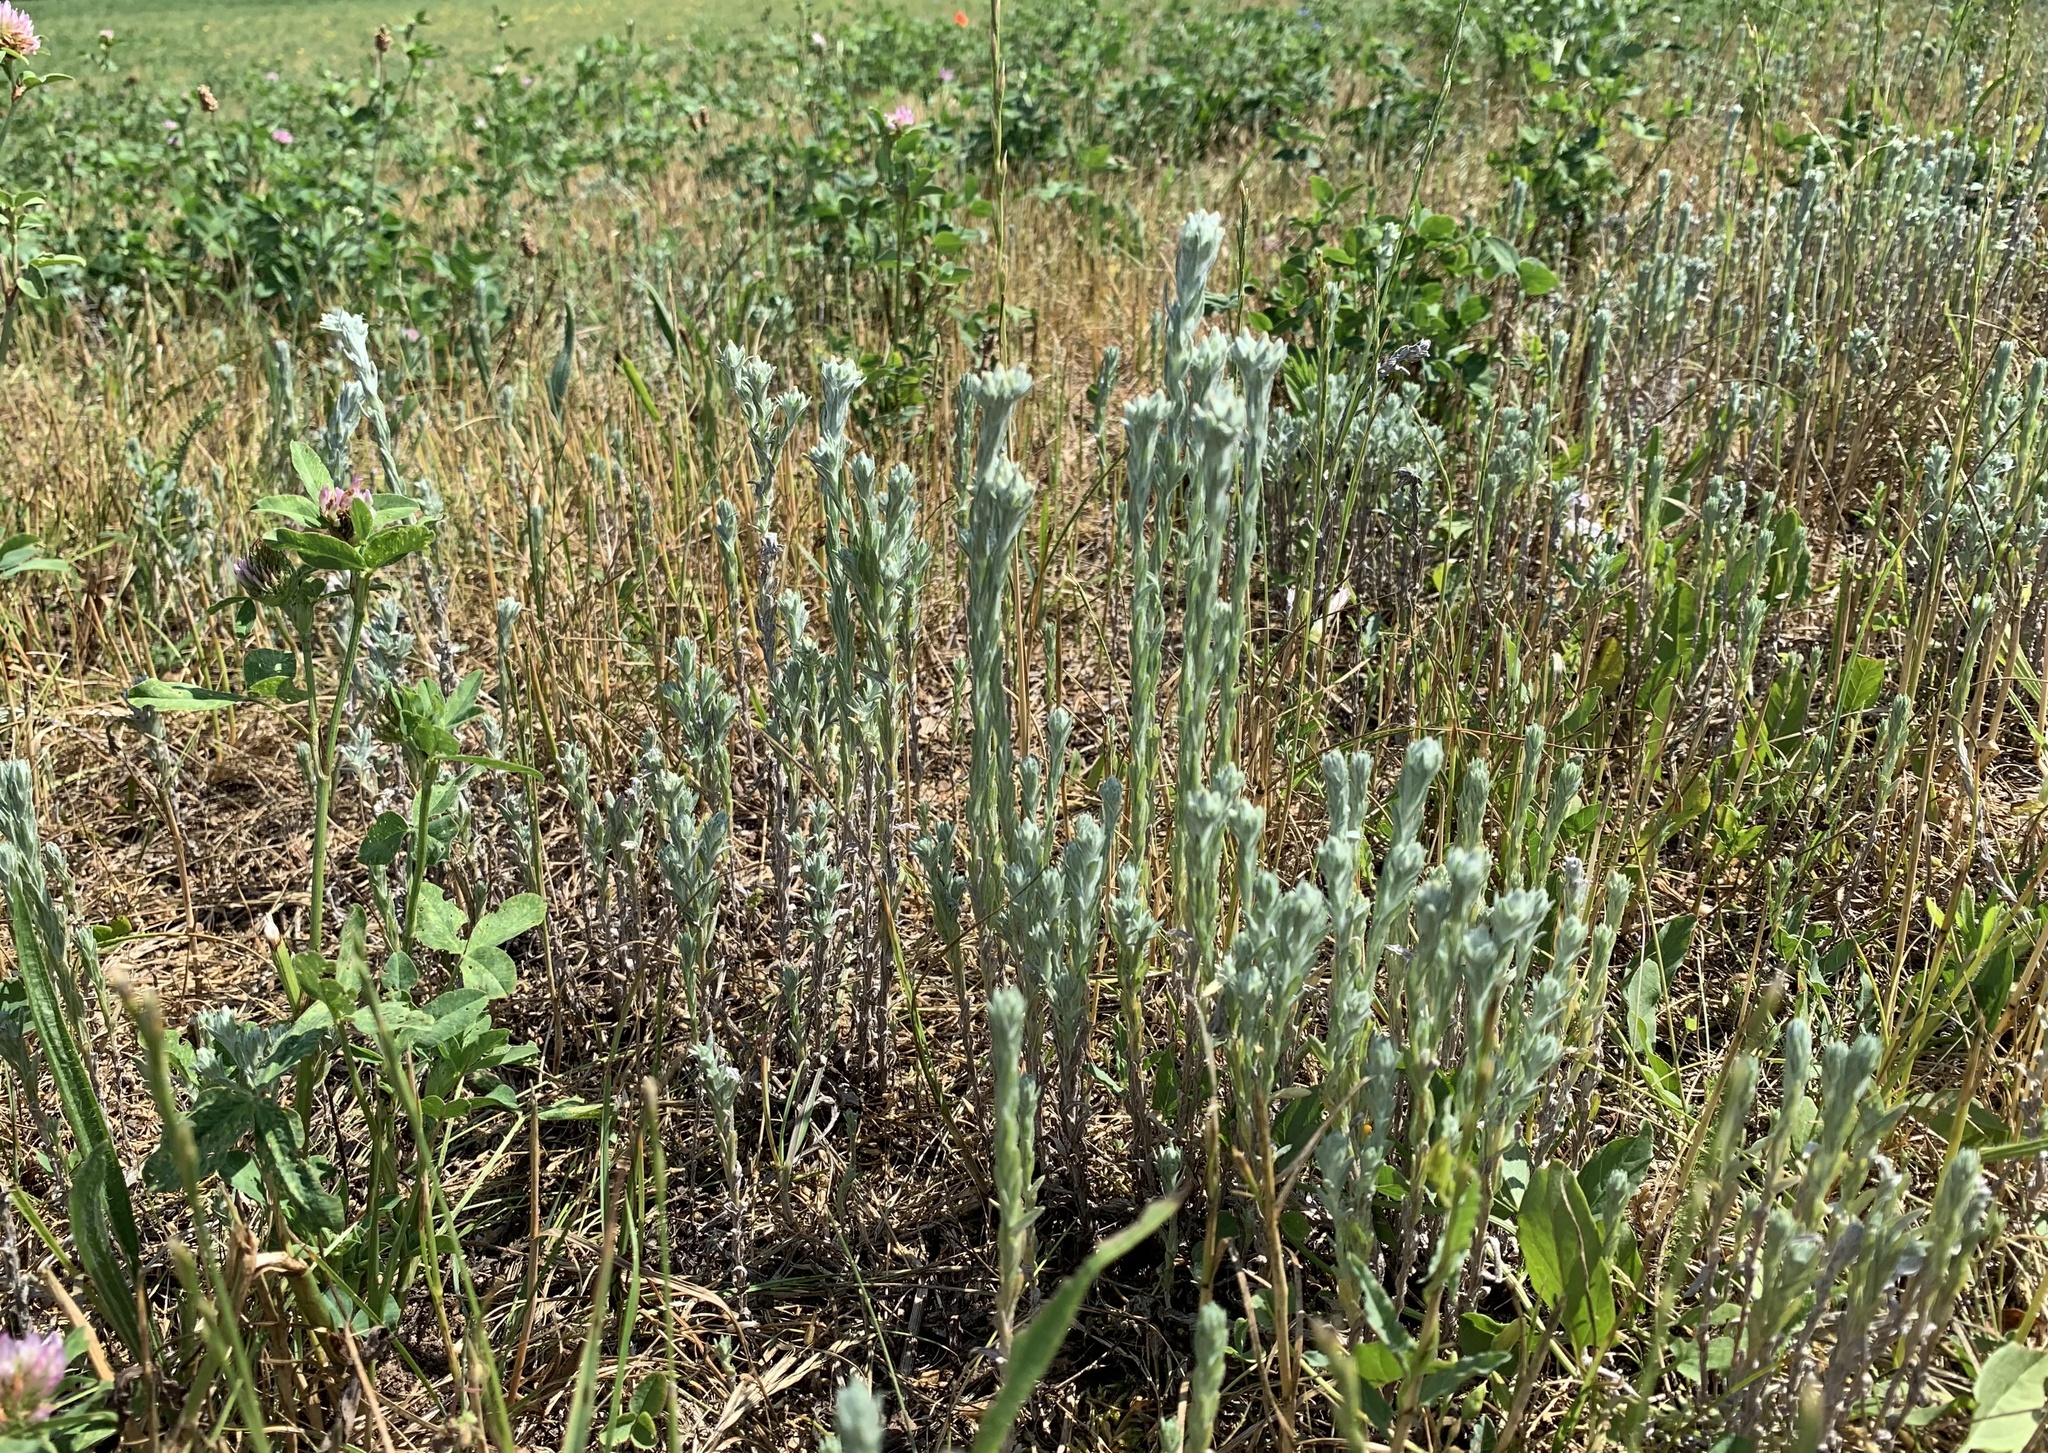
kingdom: Plantae
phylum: Tracheophyta
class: Magnoliopsida
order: Asterales
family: Asteraceae
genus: Filago
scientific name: Filago arvensis
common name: Field cudweed
